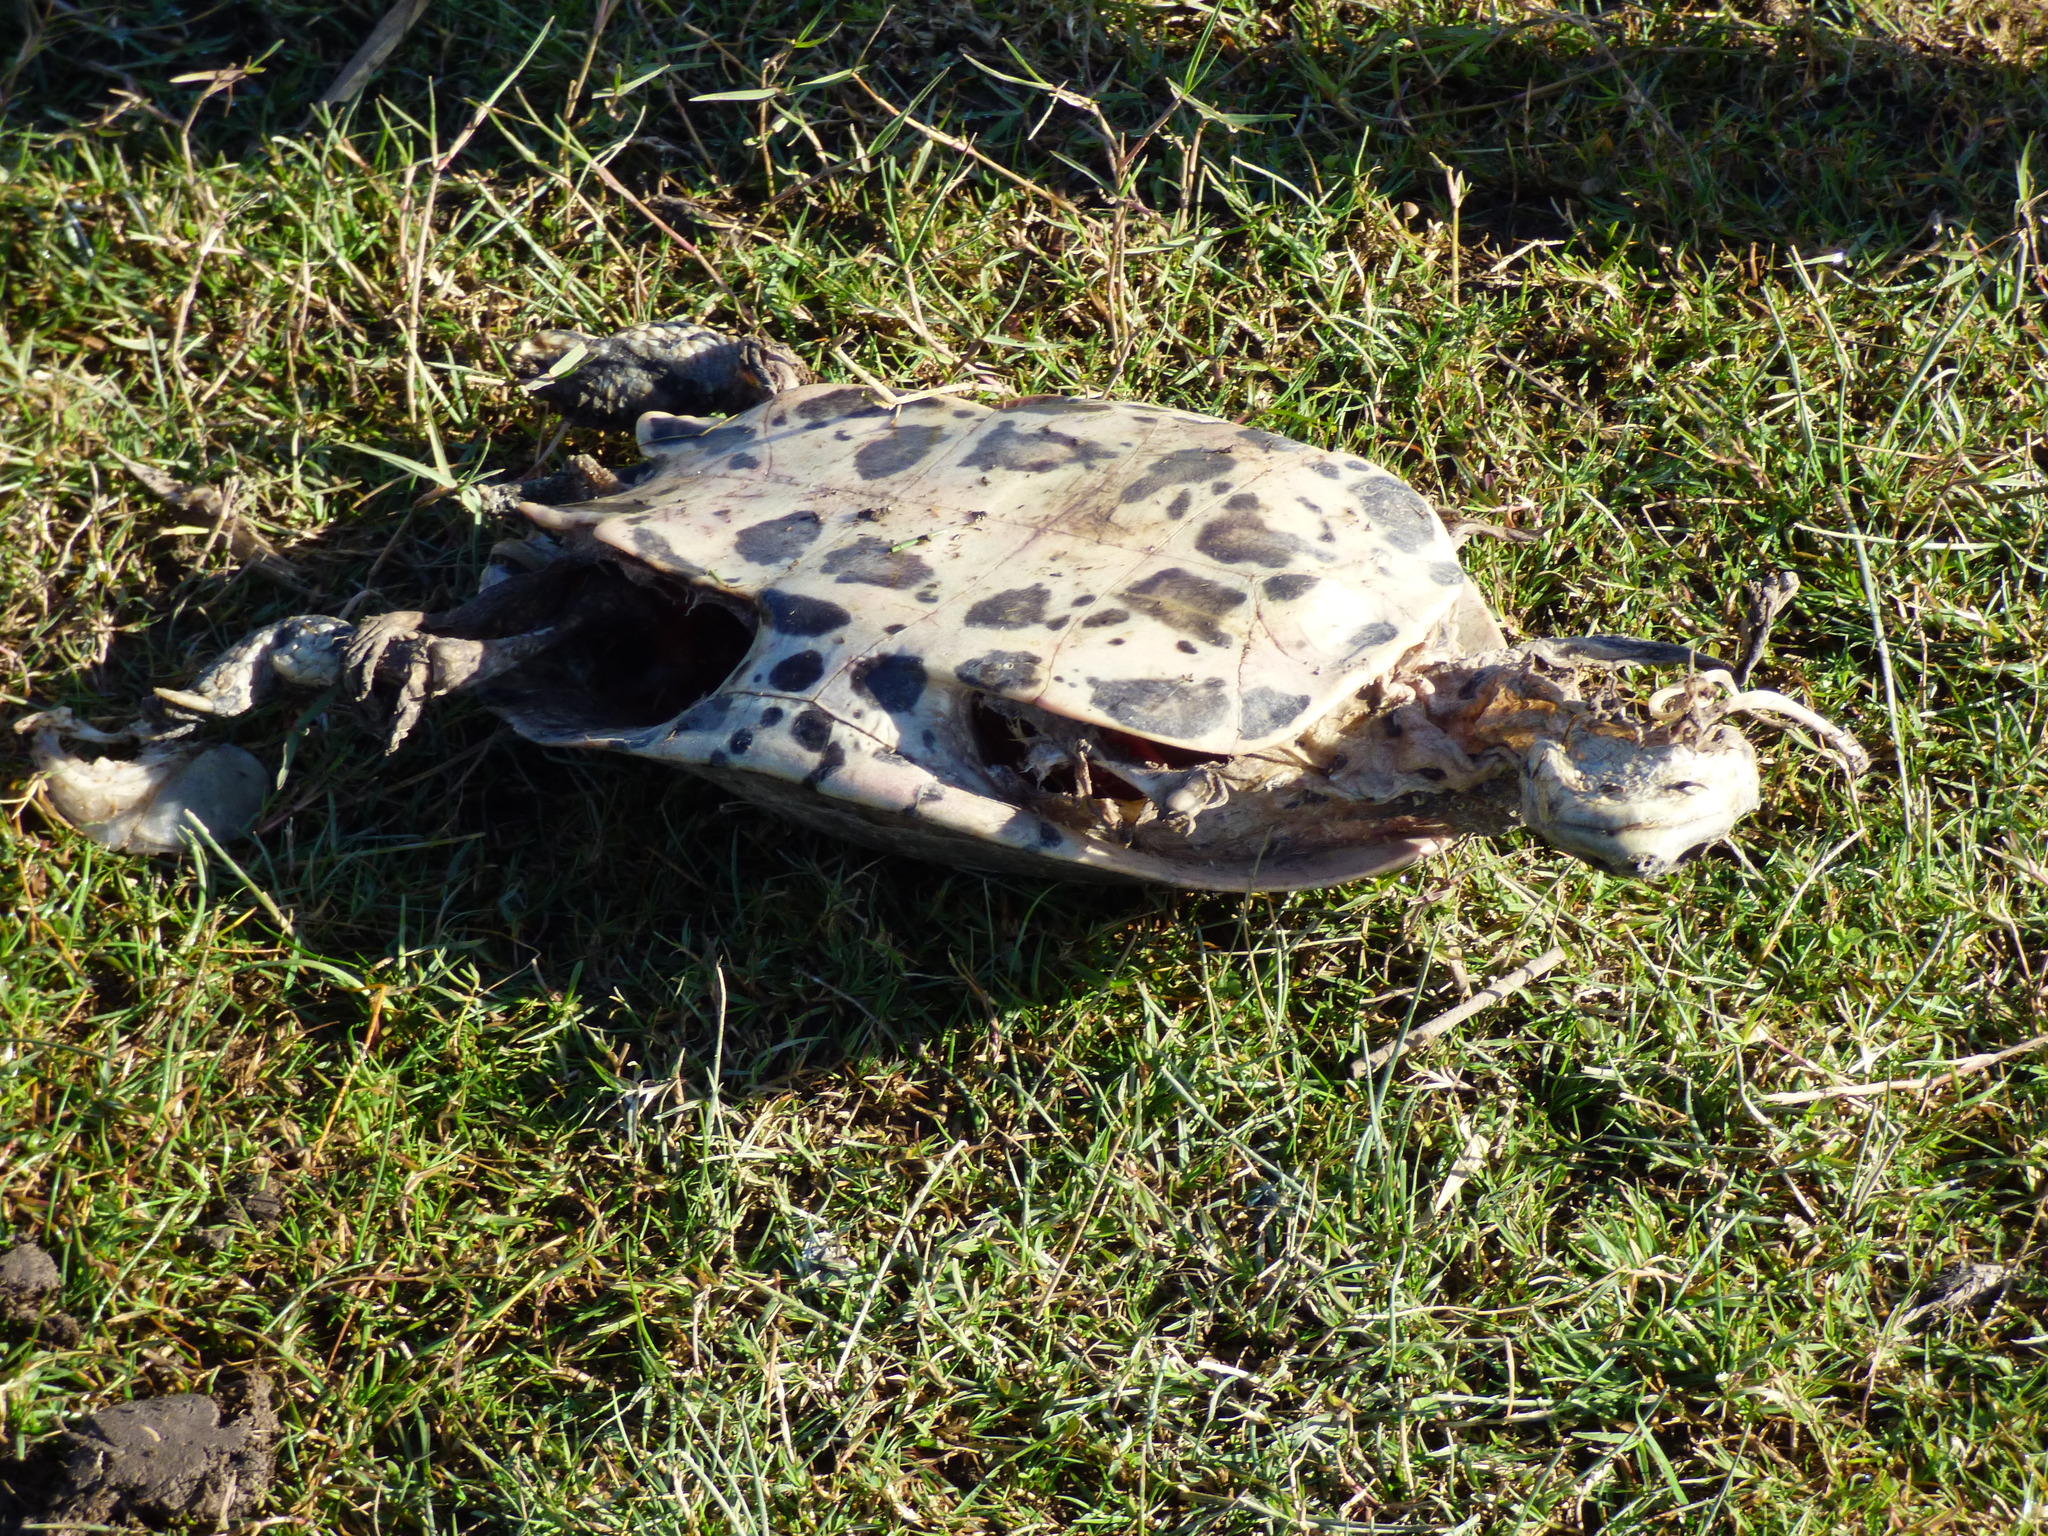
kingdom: Animalia
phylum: Chordata
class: Testudines
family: Chelidae
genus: Phrynops
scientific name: Phrynops hilarii
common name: Side-necked turtle of saint hillaire
